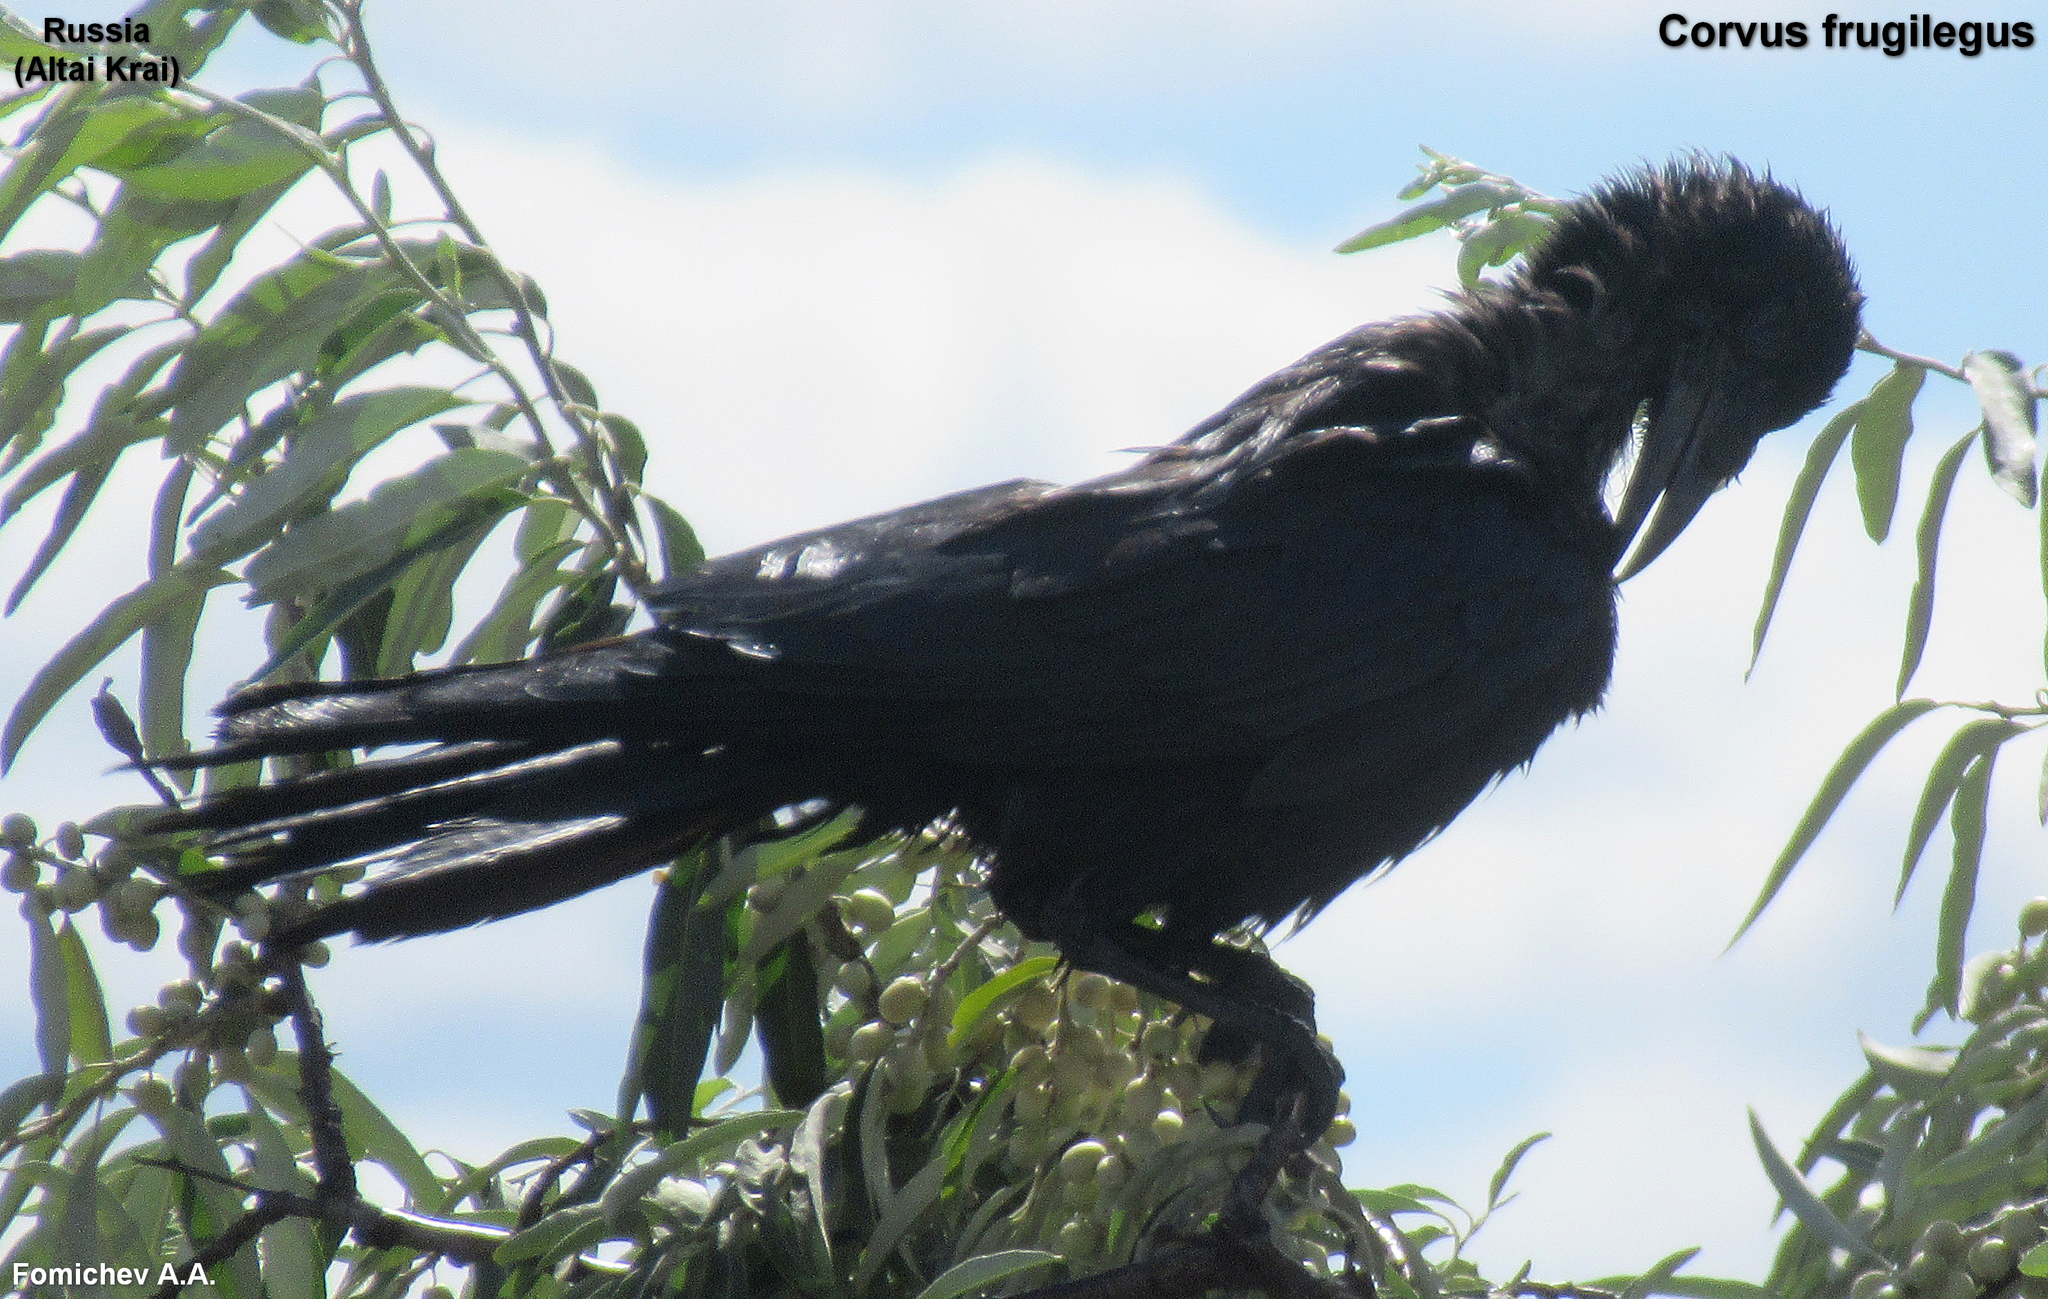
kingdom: Animalia
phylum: Chordata
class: Aves
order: Passeriformes
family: Corvidae
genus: Corvus
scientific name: Corvus frugilegus
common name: Rook
